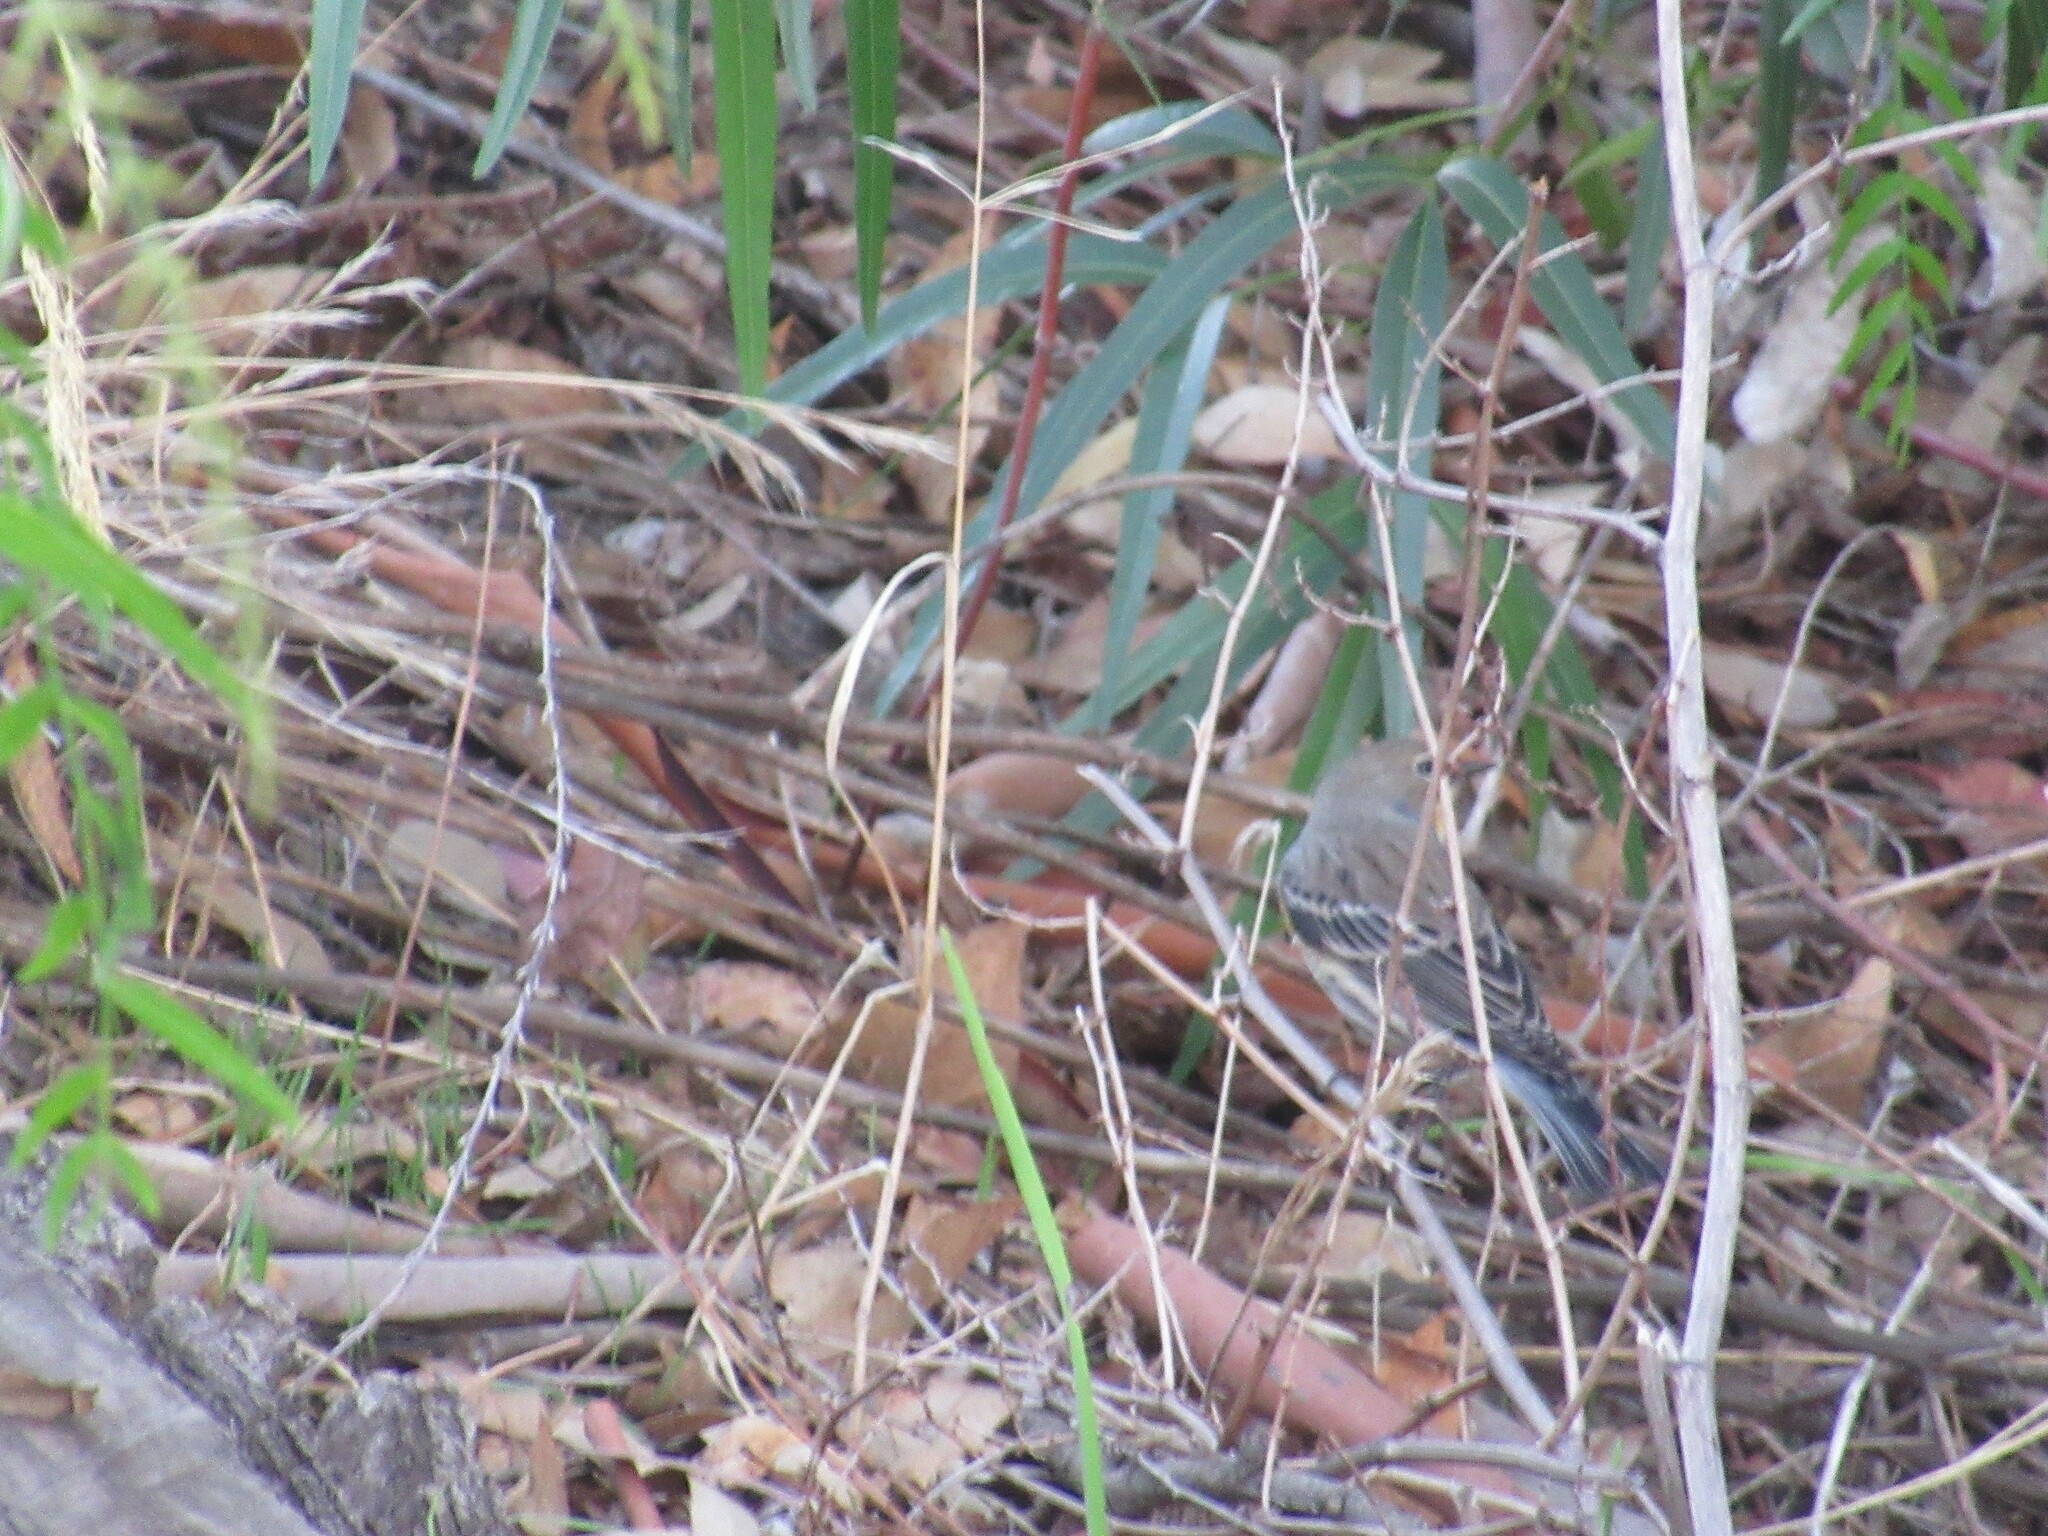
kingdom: Animalia
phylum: Chordata
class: Aves
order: Passeriformes
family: Parulidae
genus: Setophaga
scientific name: Setophaga coronata
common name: Myrtle warbler
